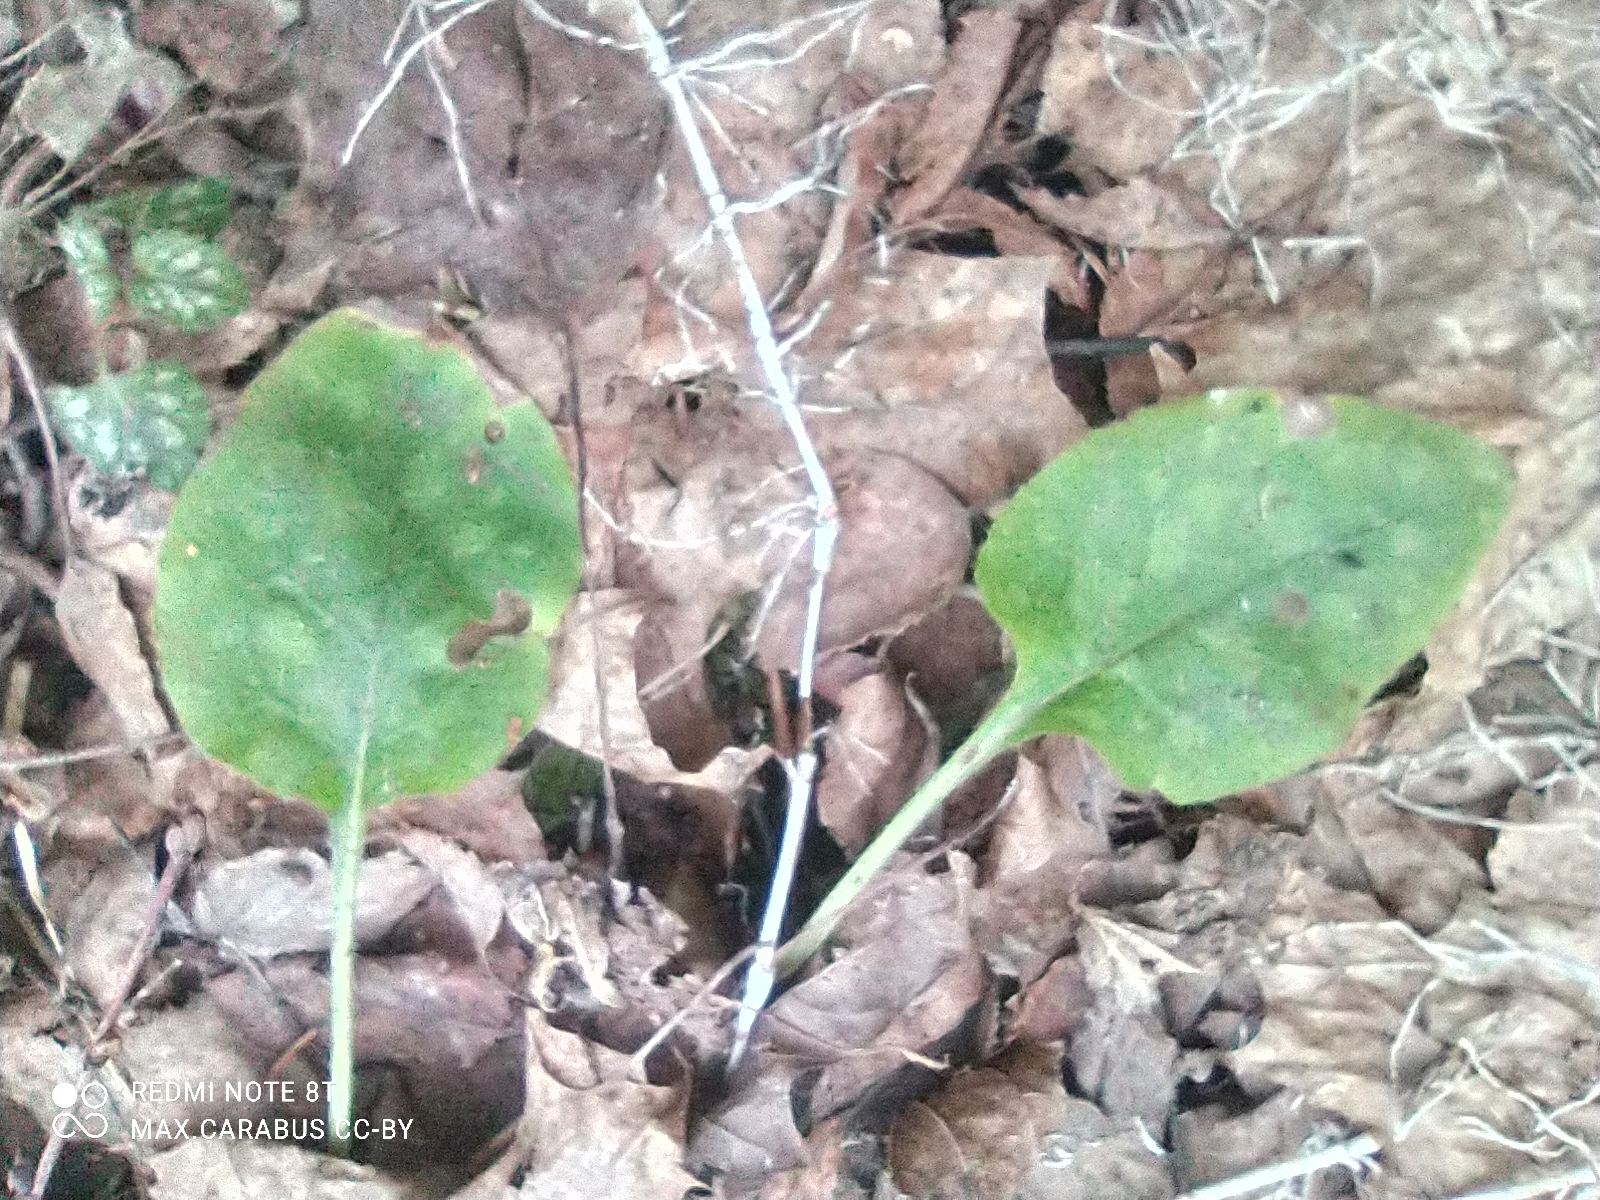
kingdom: Plantae
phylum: Tracheophyta
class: Magnoliopsida
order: Boraginales
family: Boraginaceae
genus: Pulmonaria
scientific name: Pulmonaria obscura
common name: Suffolk lungwort
